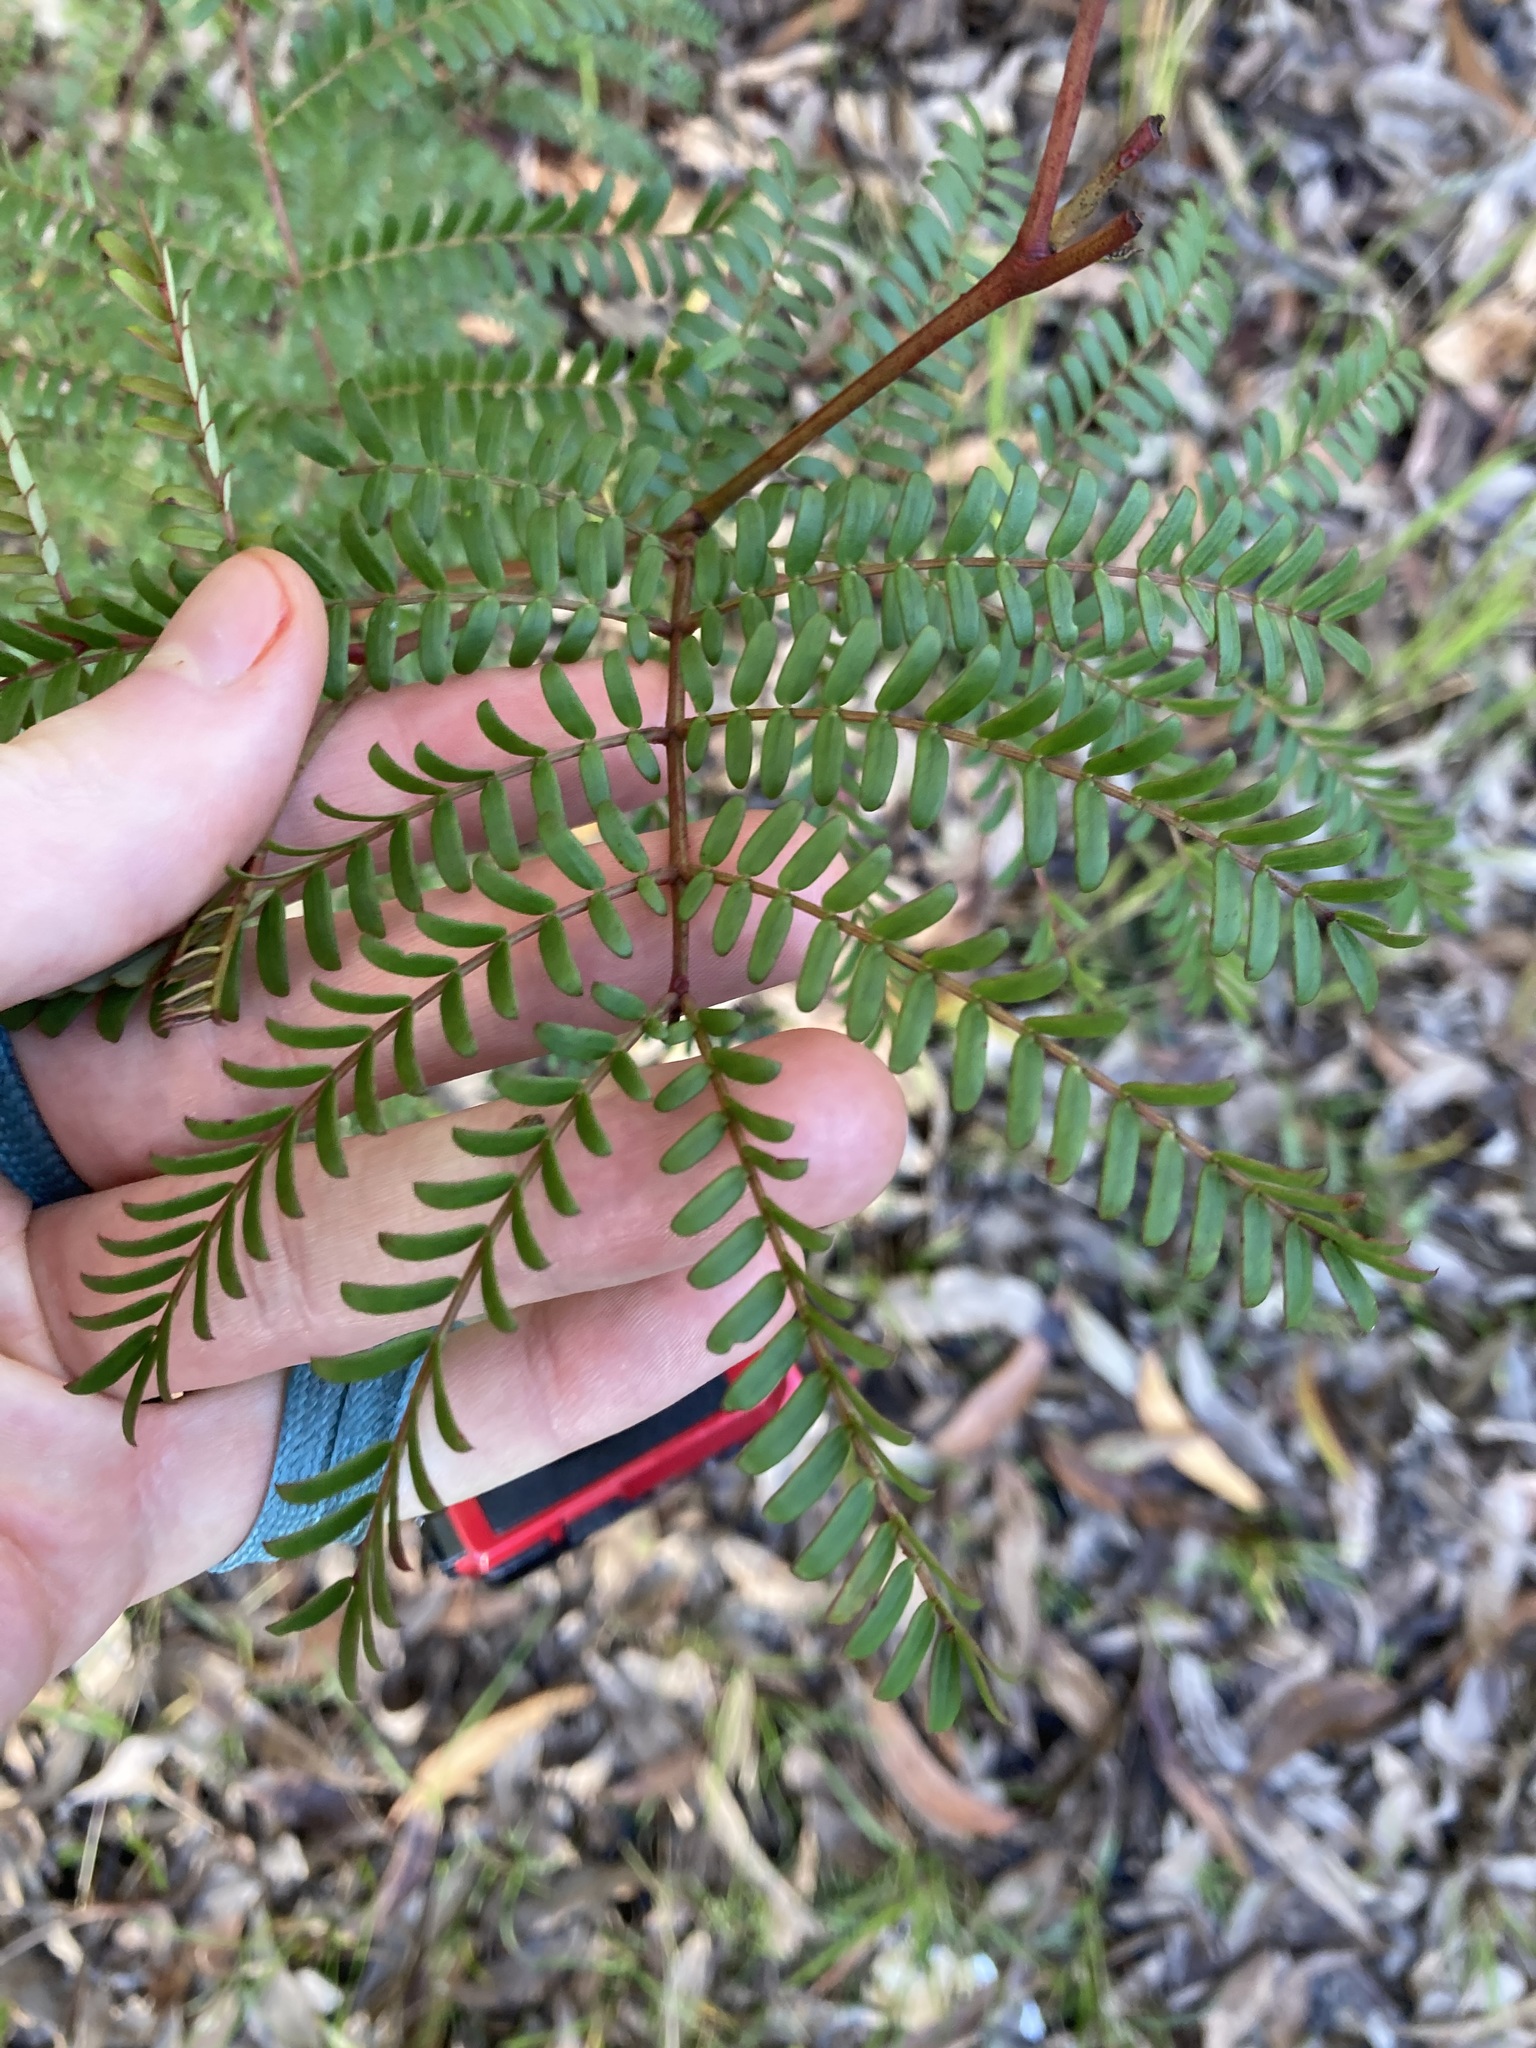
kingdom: Plantae
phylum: Tracheophyta
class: Magnoliopsida
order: Fabales
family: Fabaceae
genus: Acacia
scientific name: Acacia terminalis
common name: Cedar wattle
